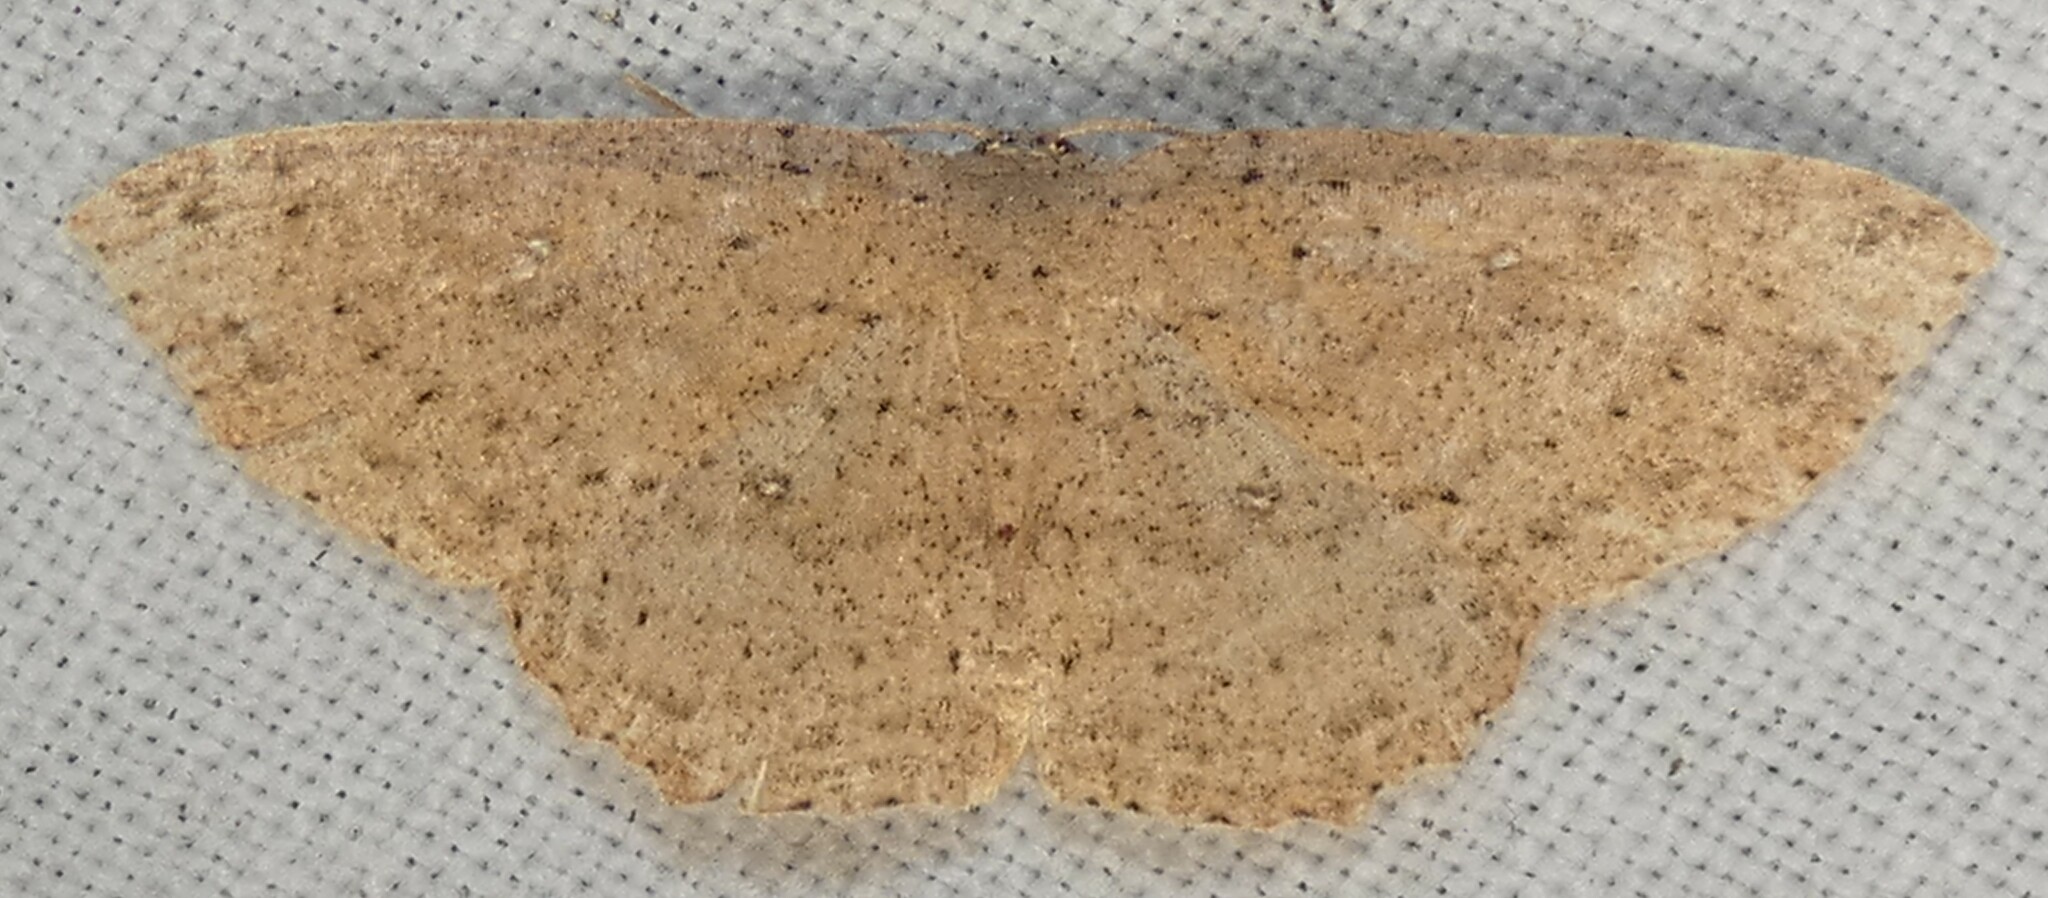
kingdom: Animalia
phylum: Arthropoda
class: Insecta
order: Lepidoptera
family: Geometridae
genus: Cyclophora
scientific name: Cyclophora myrtaria
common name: Waxmyrtle wave moth
